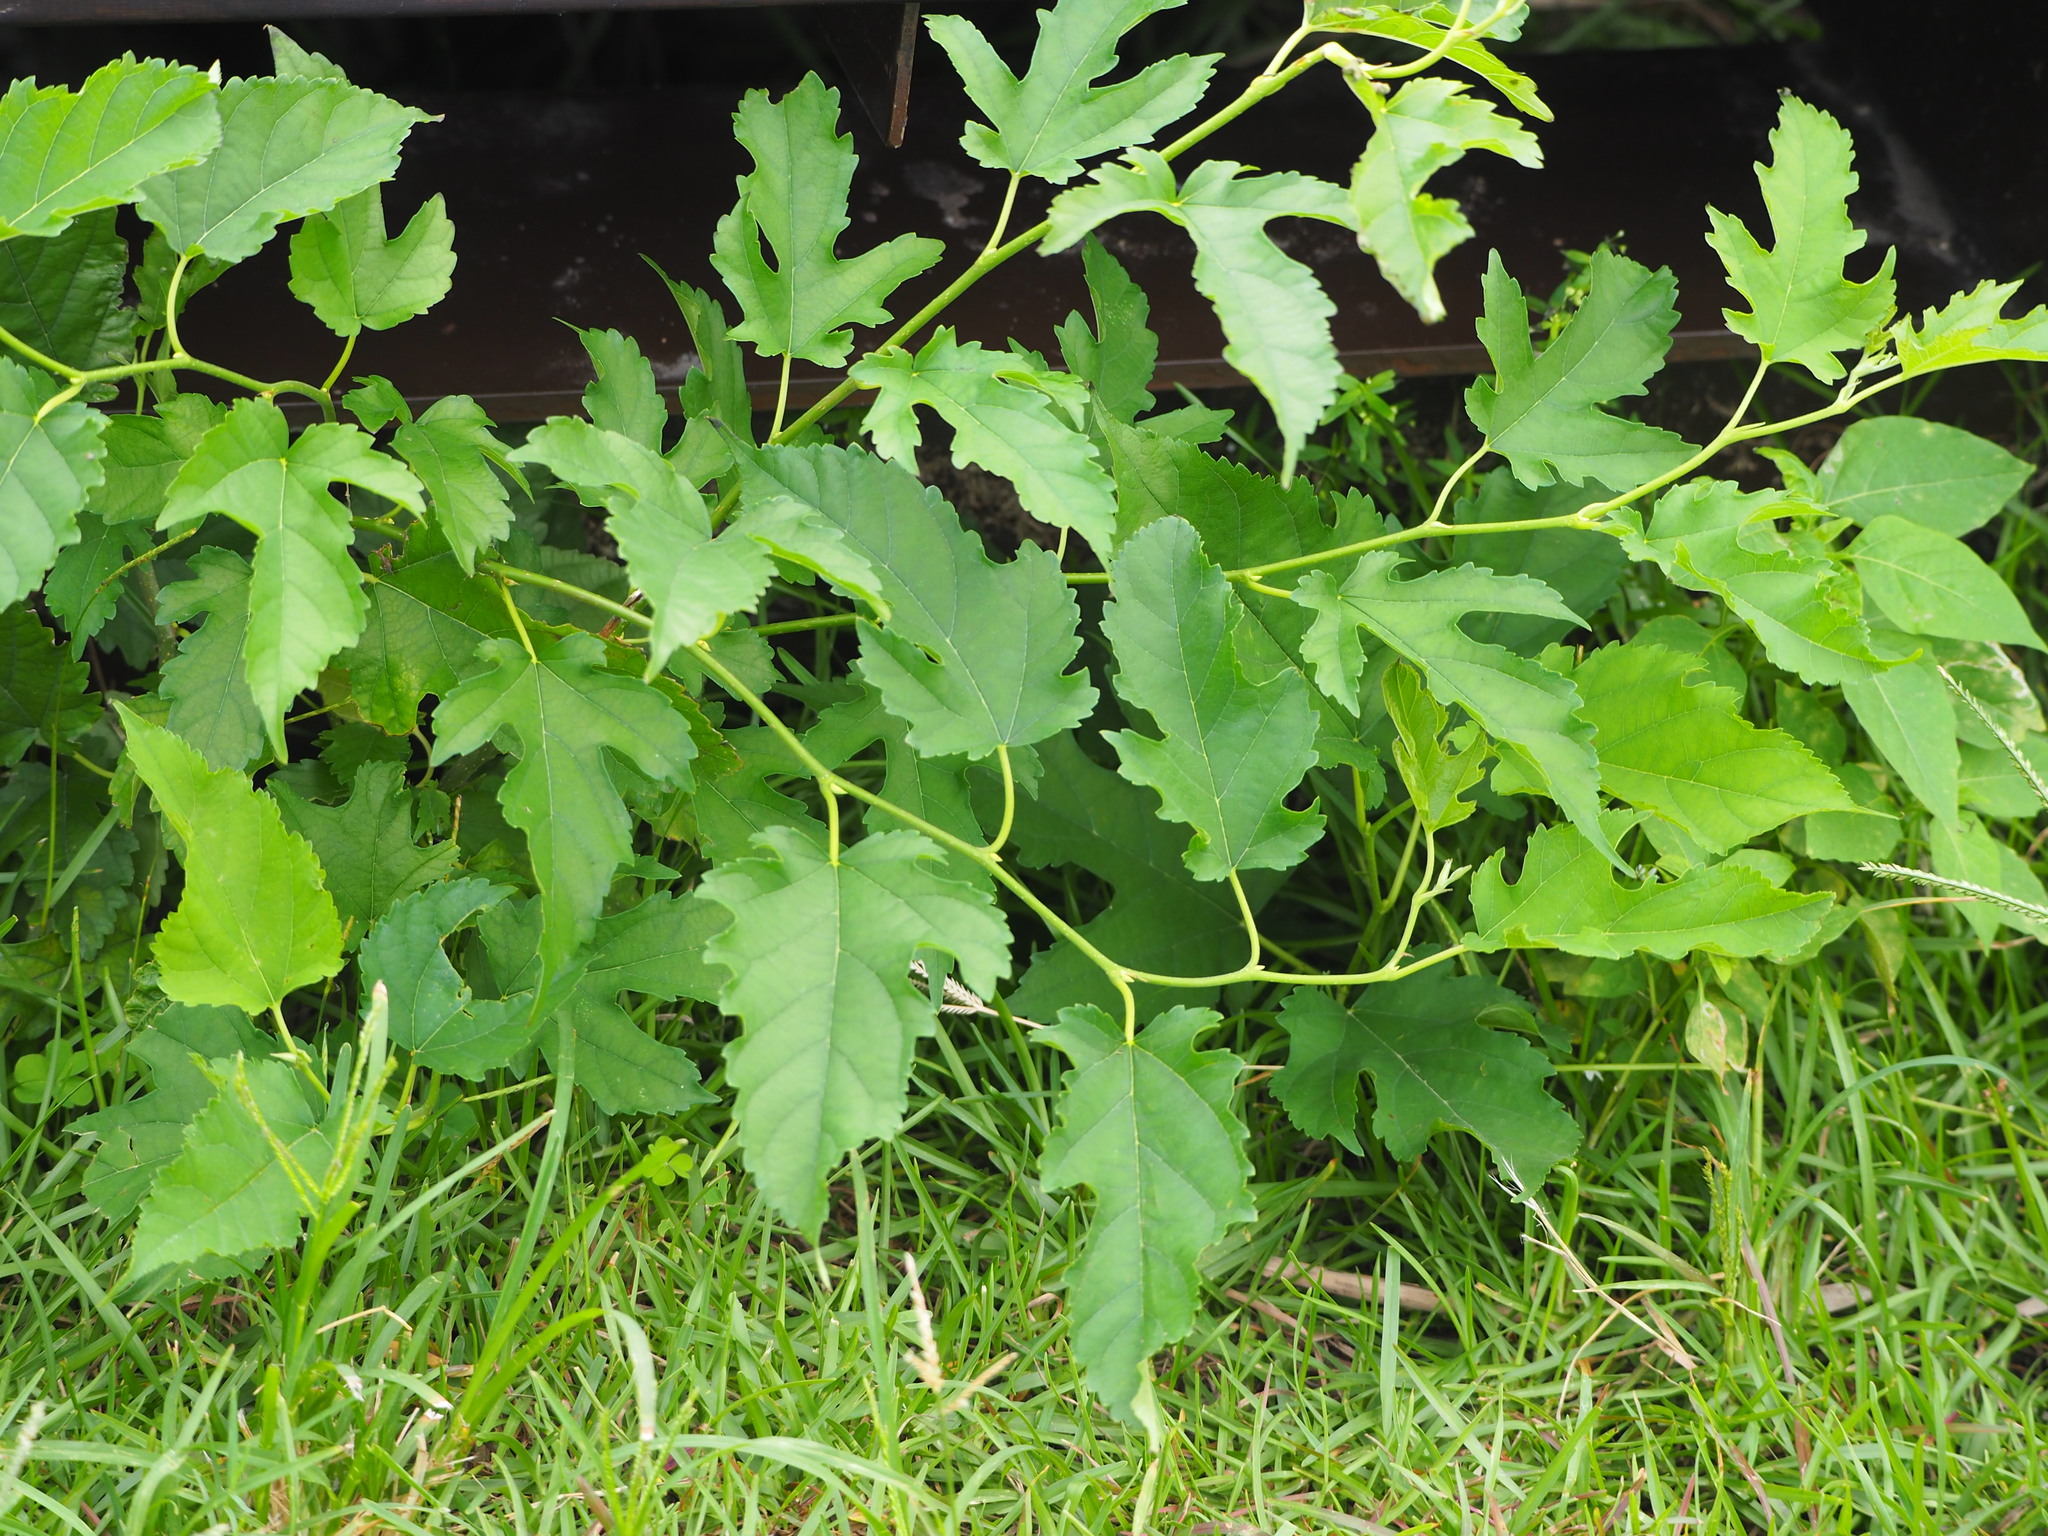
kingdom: Plantae
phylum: Tracheophyta
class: Magnoliopsida
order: Rosales
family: Moraceae
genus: Morus
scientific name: Morus indica
